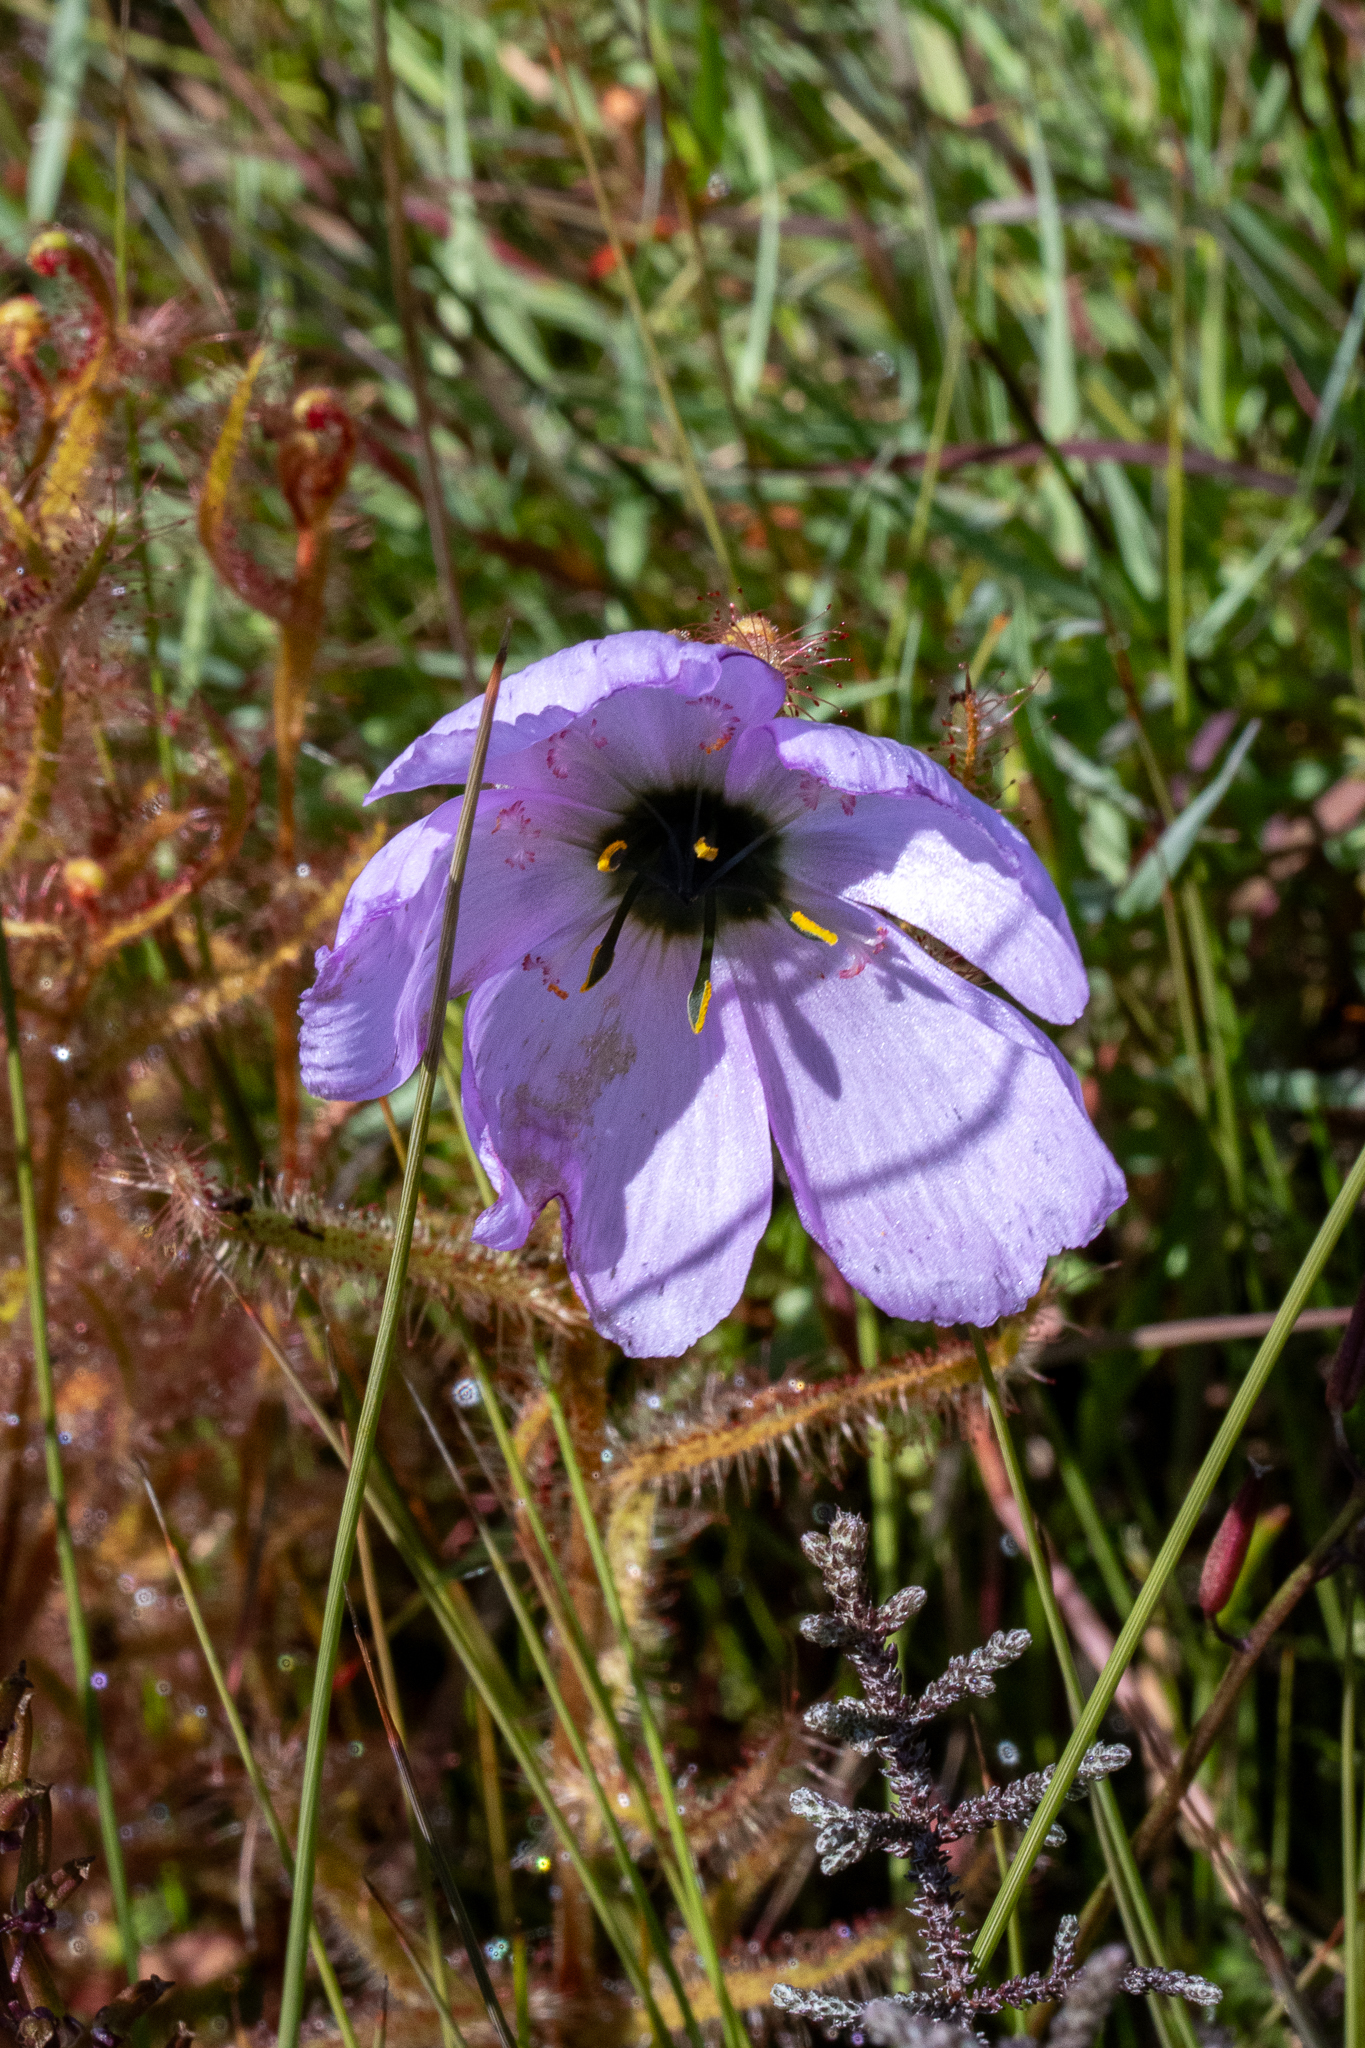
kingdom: Plantae
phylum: Tracheophyta
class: Magnoliopsida
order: Caryophyllales
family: Droseraceae
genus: Drosera
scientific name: Drosera cistiflora
